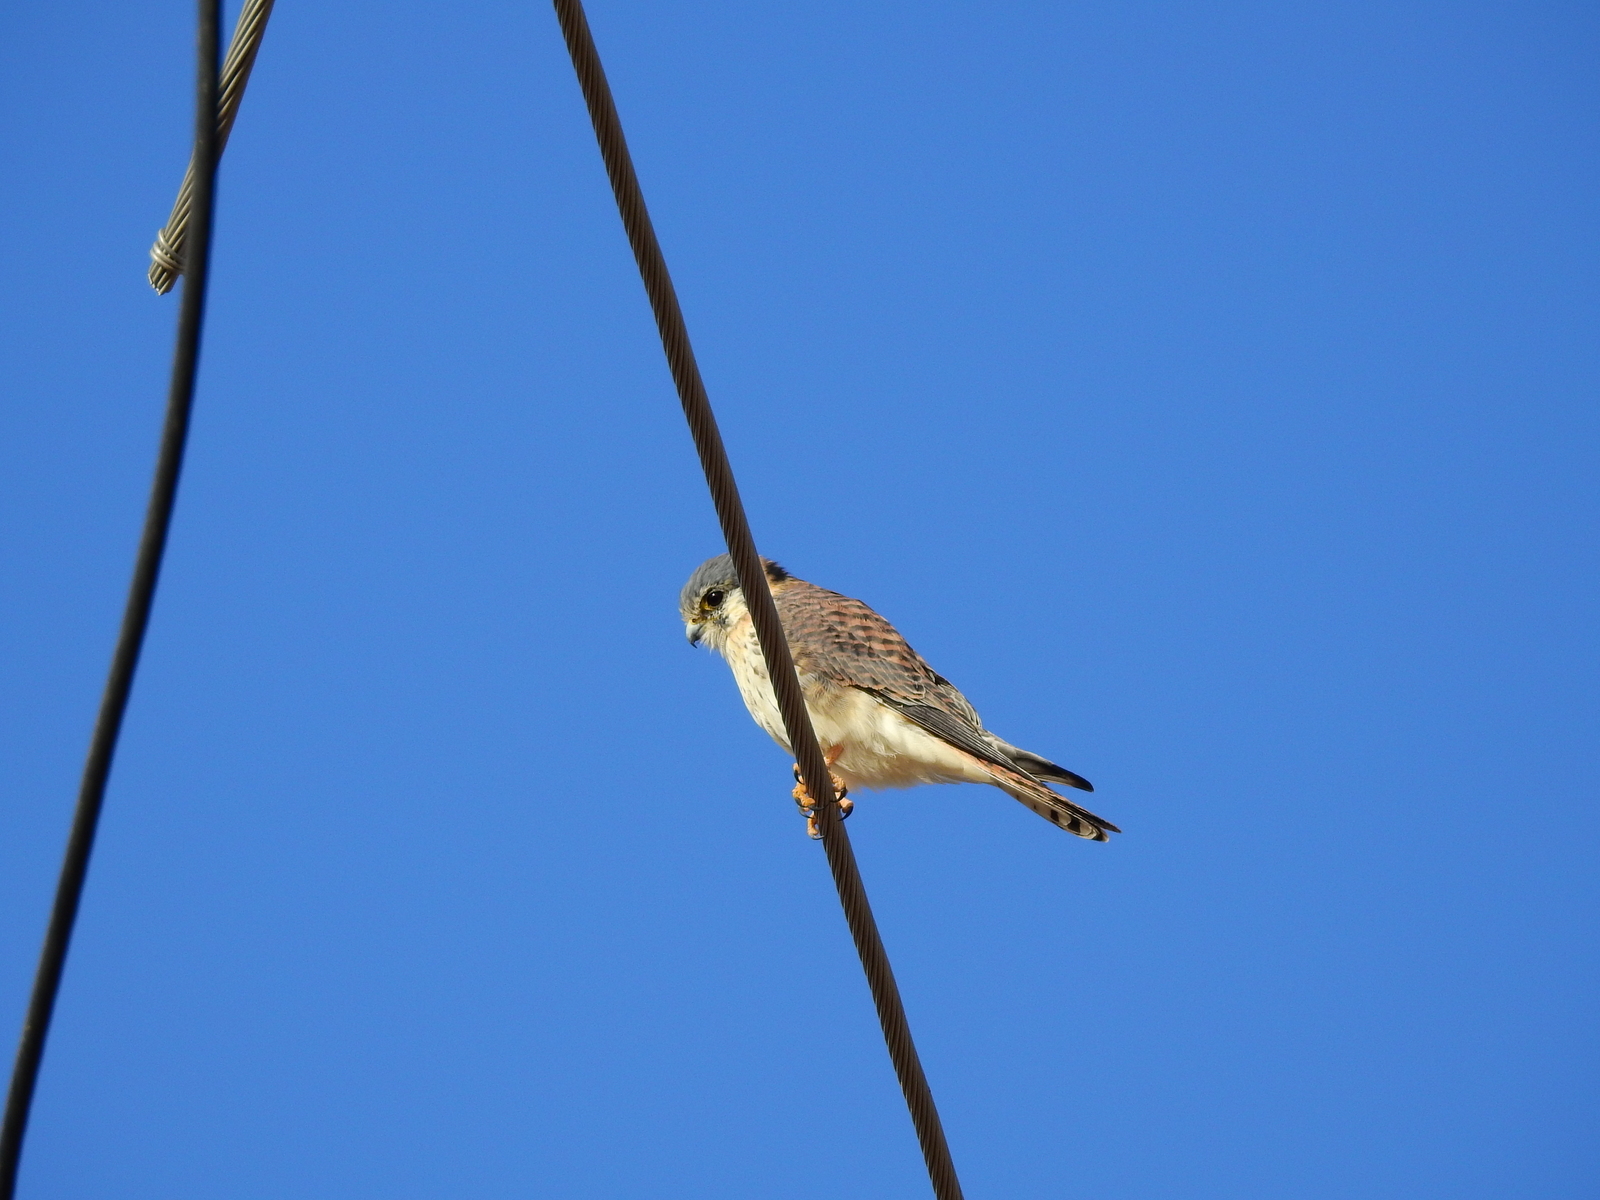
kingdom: Animalia
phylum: Chordata
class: Aves
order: Falconiformes
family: Falconidae
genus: Falco
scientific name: Falco sparverius
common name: American kestrel
